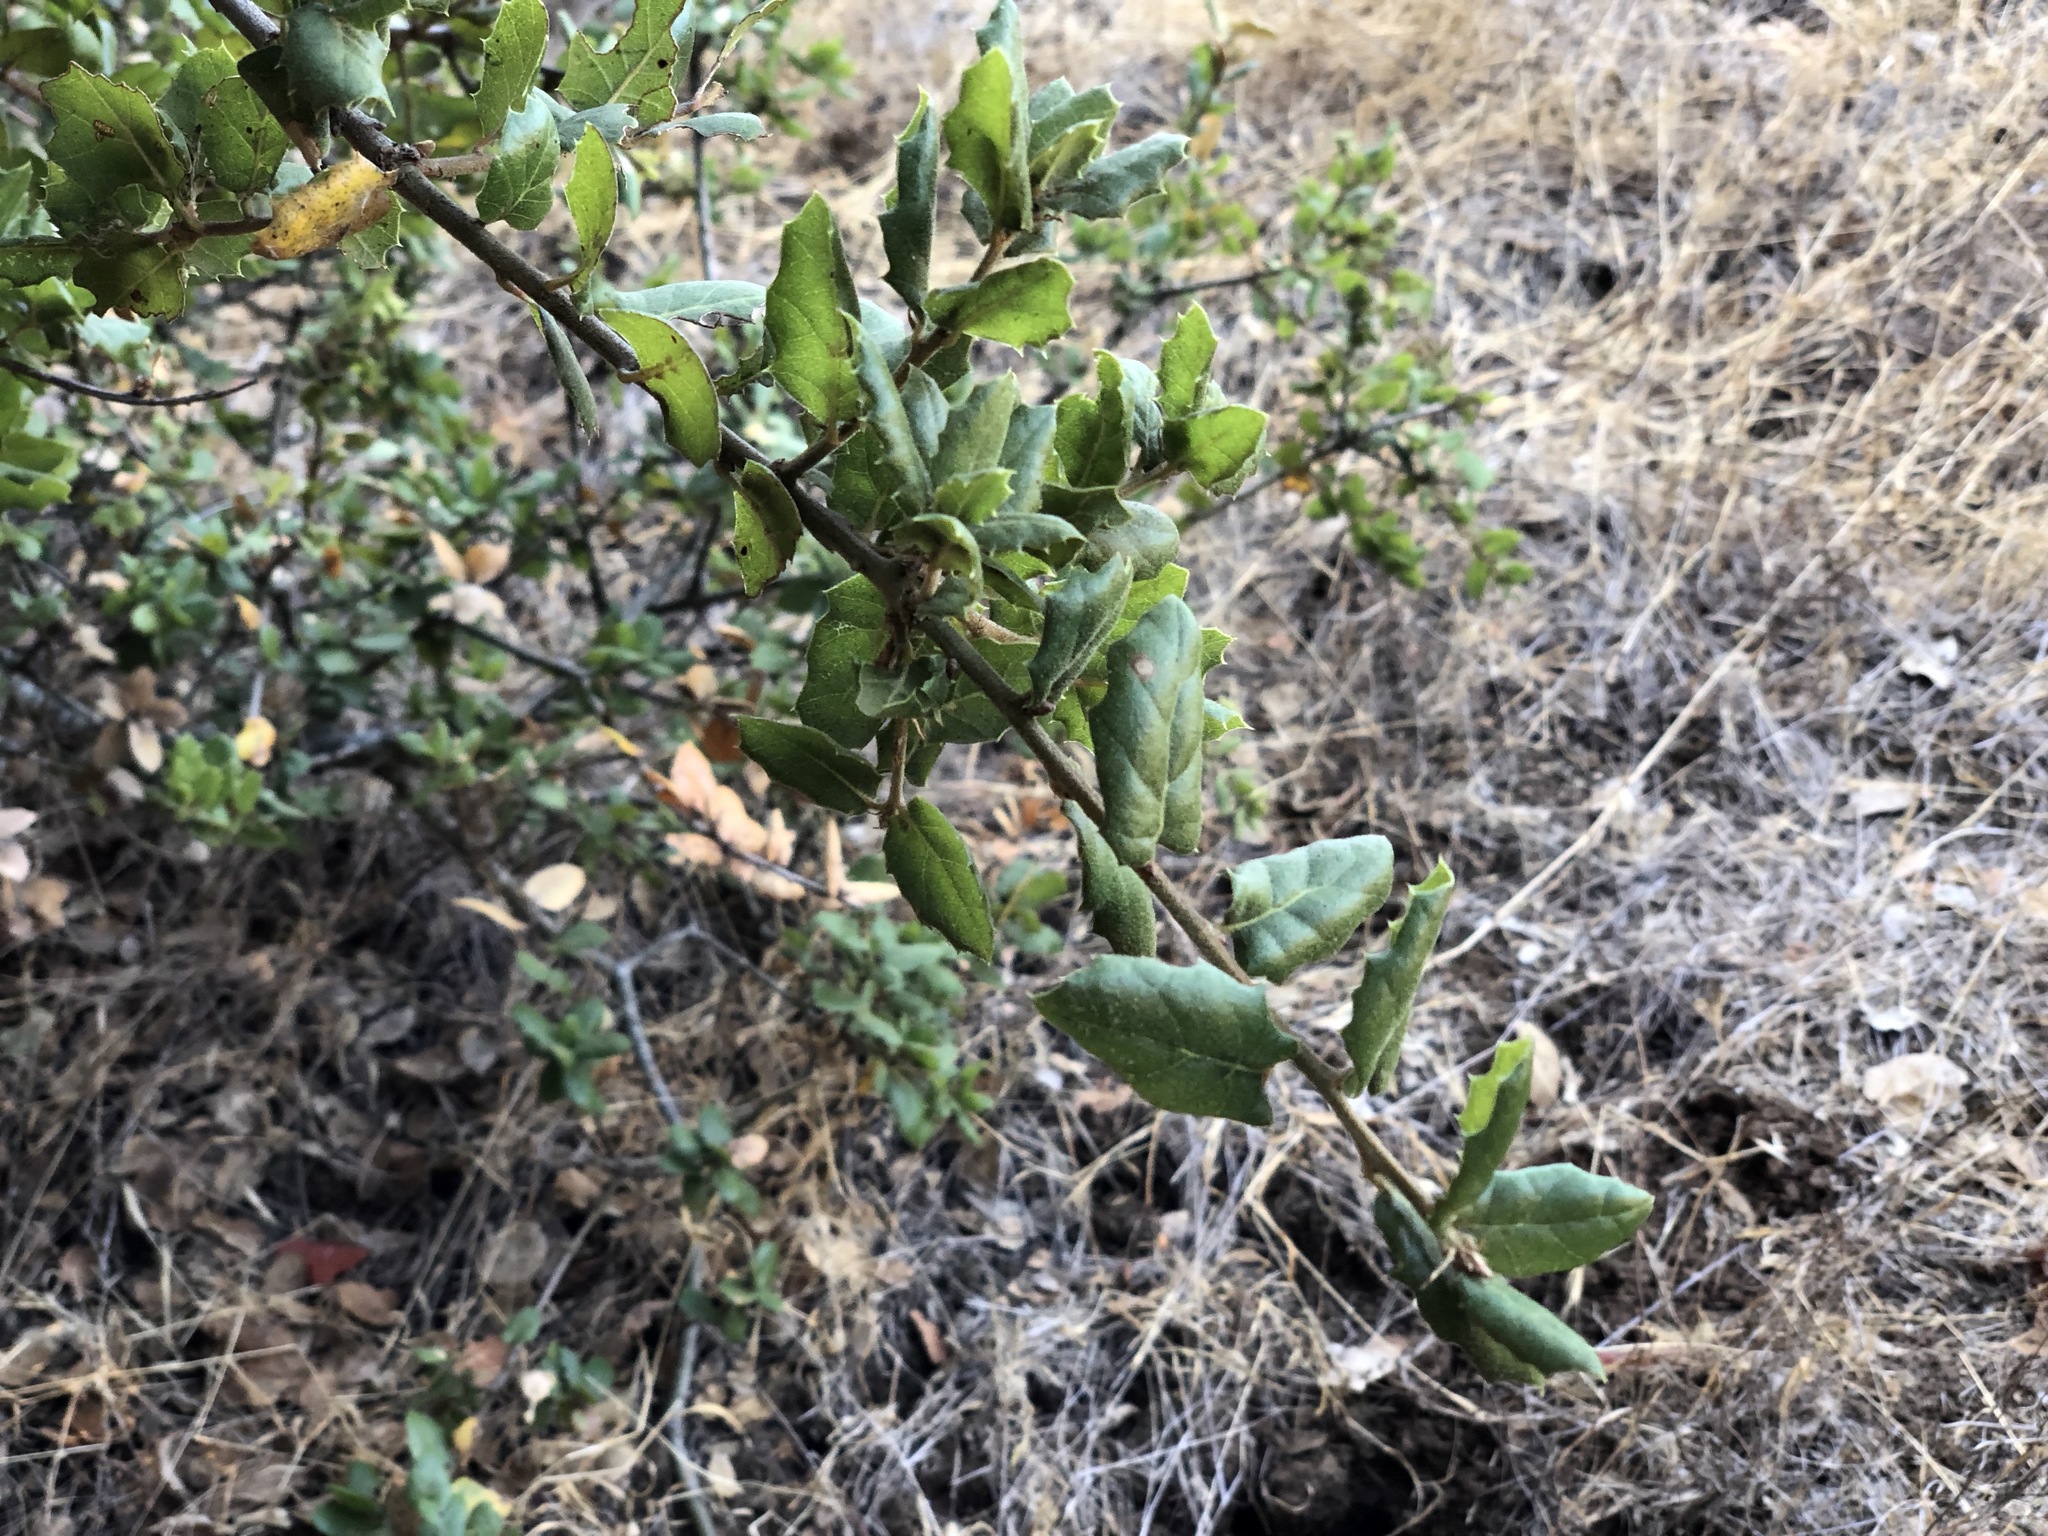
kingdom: Plantae
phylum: Tracheophyta
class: Magnoliopsida
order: Fagales
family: Fagaceae
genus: Quercus
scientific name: Quercus agrifolia
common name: California live oak
